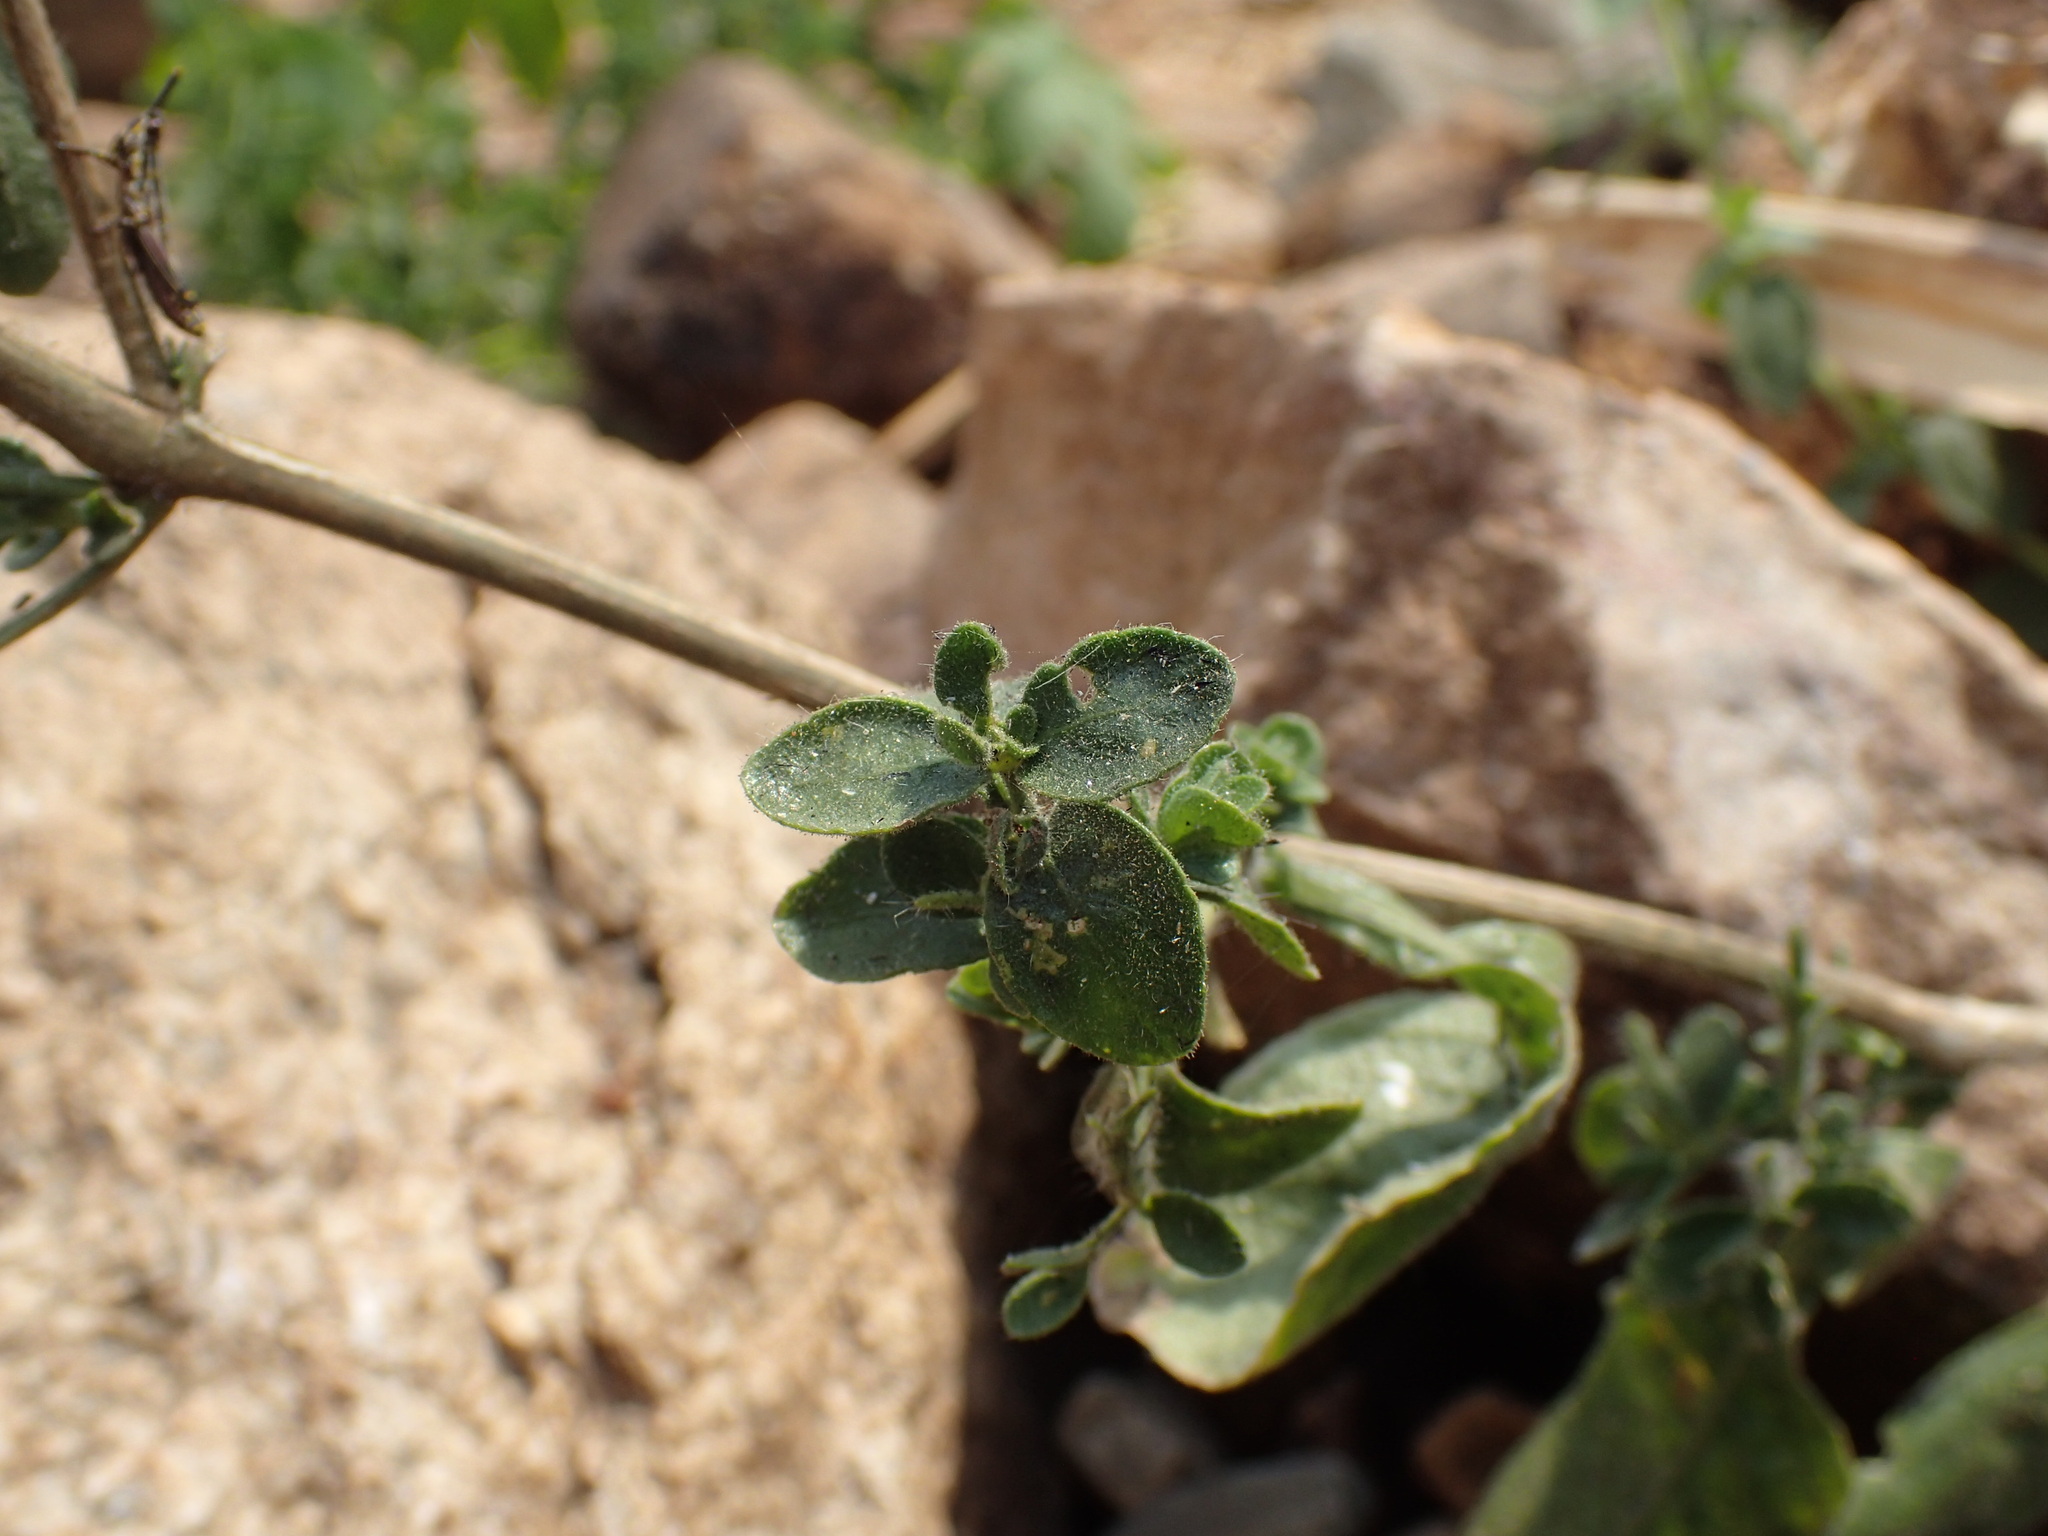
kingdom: Plantae
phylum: Tracheophyta
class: Magnoliopsida
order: Lamiales
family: Acanthaceae
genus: Brillantaisia
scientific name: Brillantaisia pubescens
